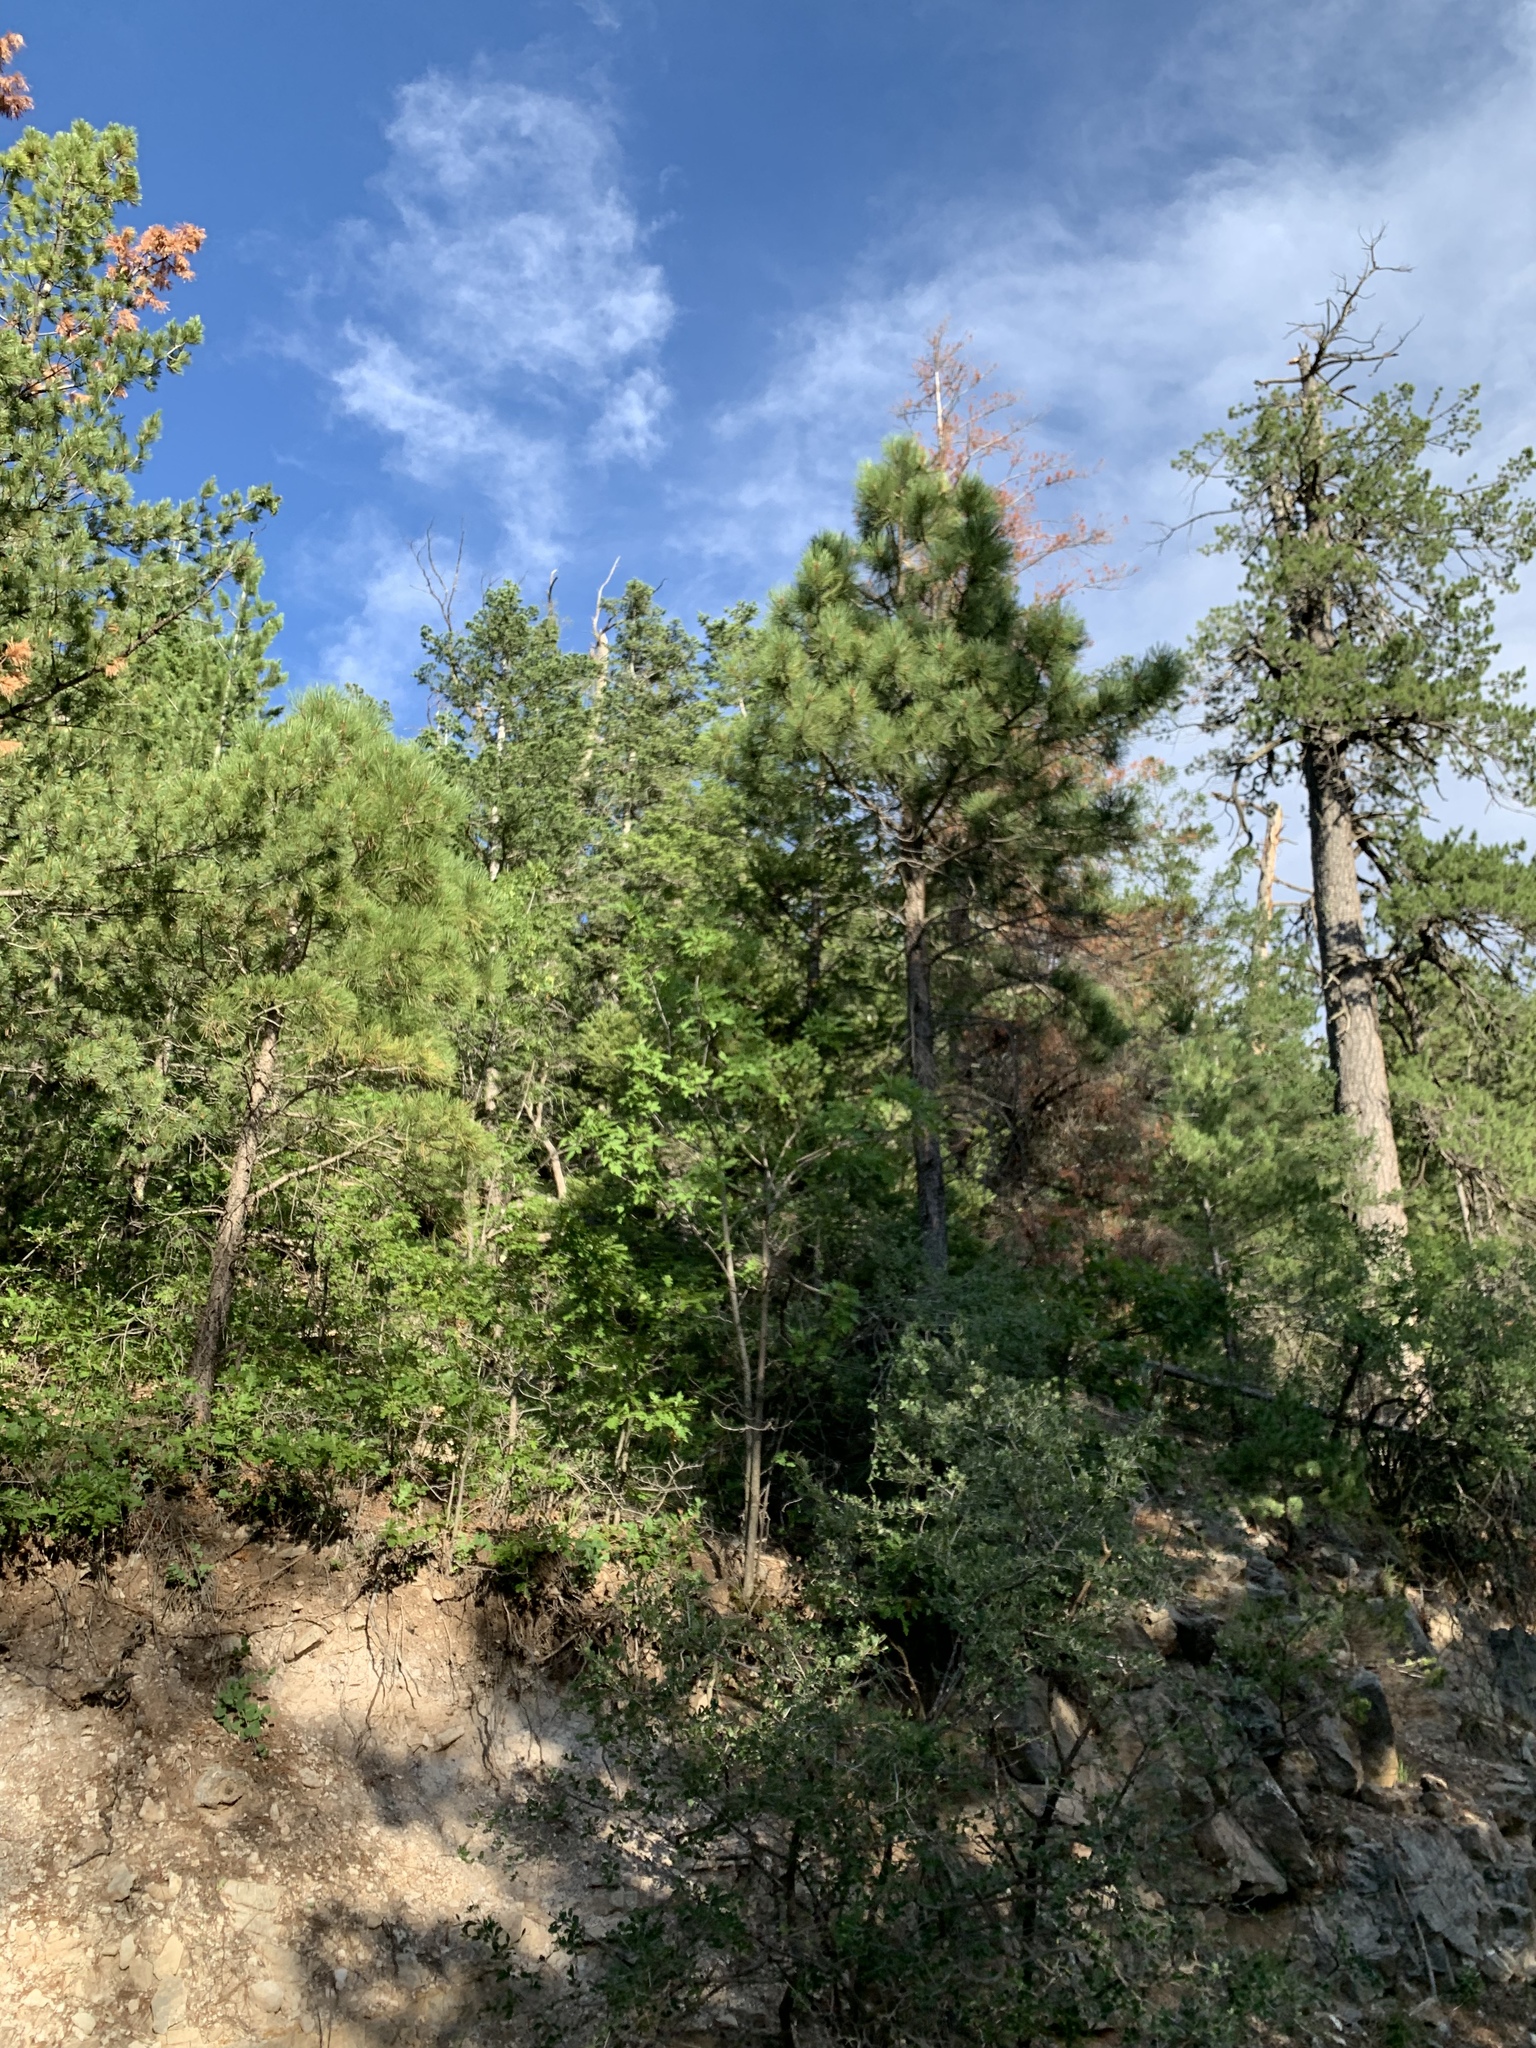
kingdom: Plantae
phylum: Tracheophyta
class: Pinopsida
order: Pinales
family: Pinaceae
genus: Pinus
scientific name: Pinus ponderosa
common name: Western yellow-pine
